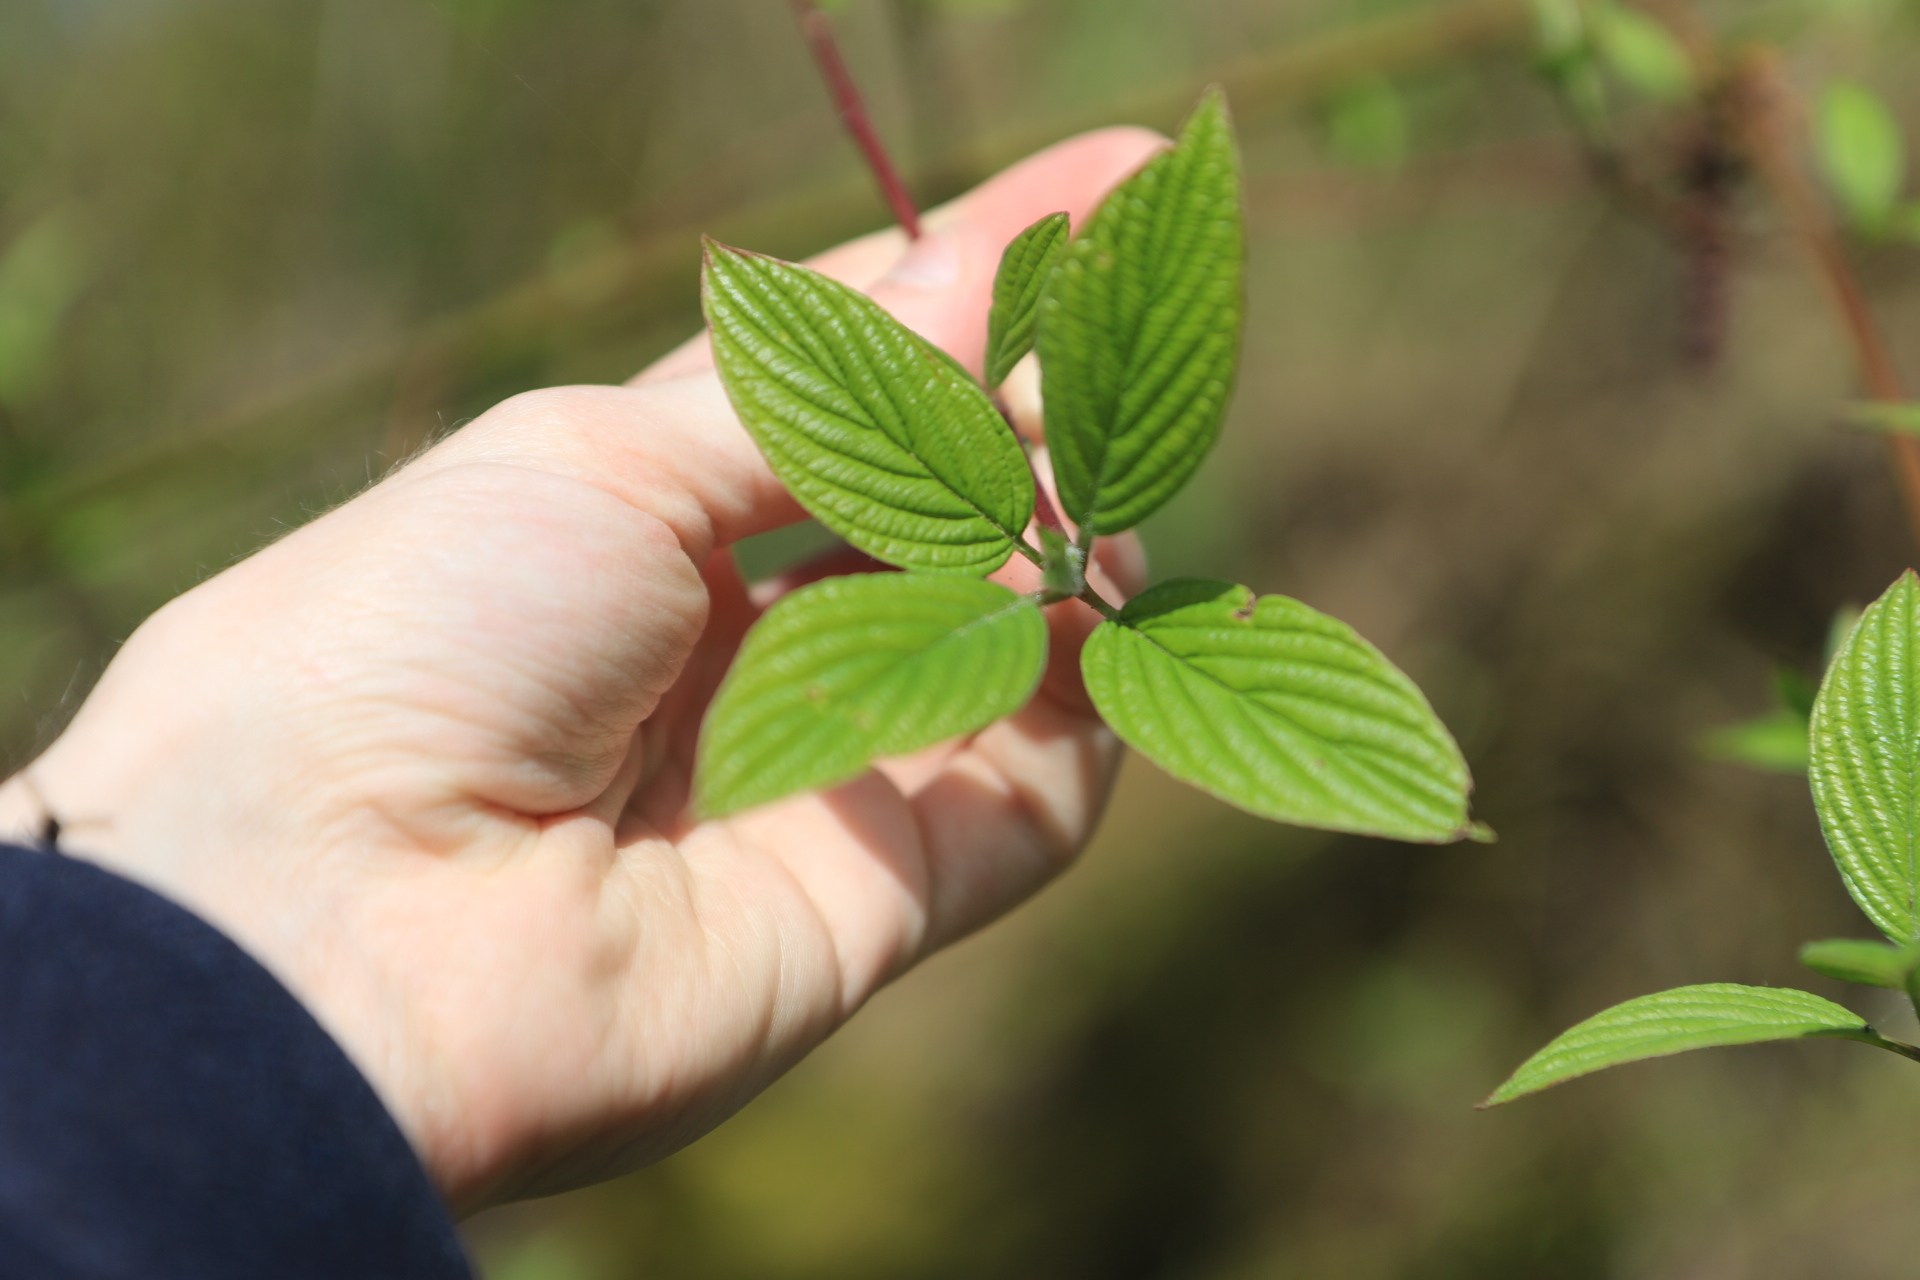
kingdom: Plantae
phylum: Tracheophyta
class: Magnoliopsida
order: Cornales
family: Cornaceae
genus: Cornus
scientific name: Cornus sericea
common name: Red-osier dogwood
